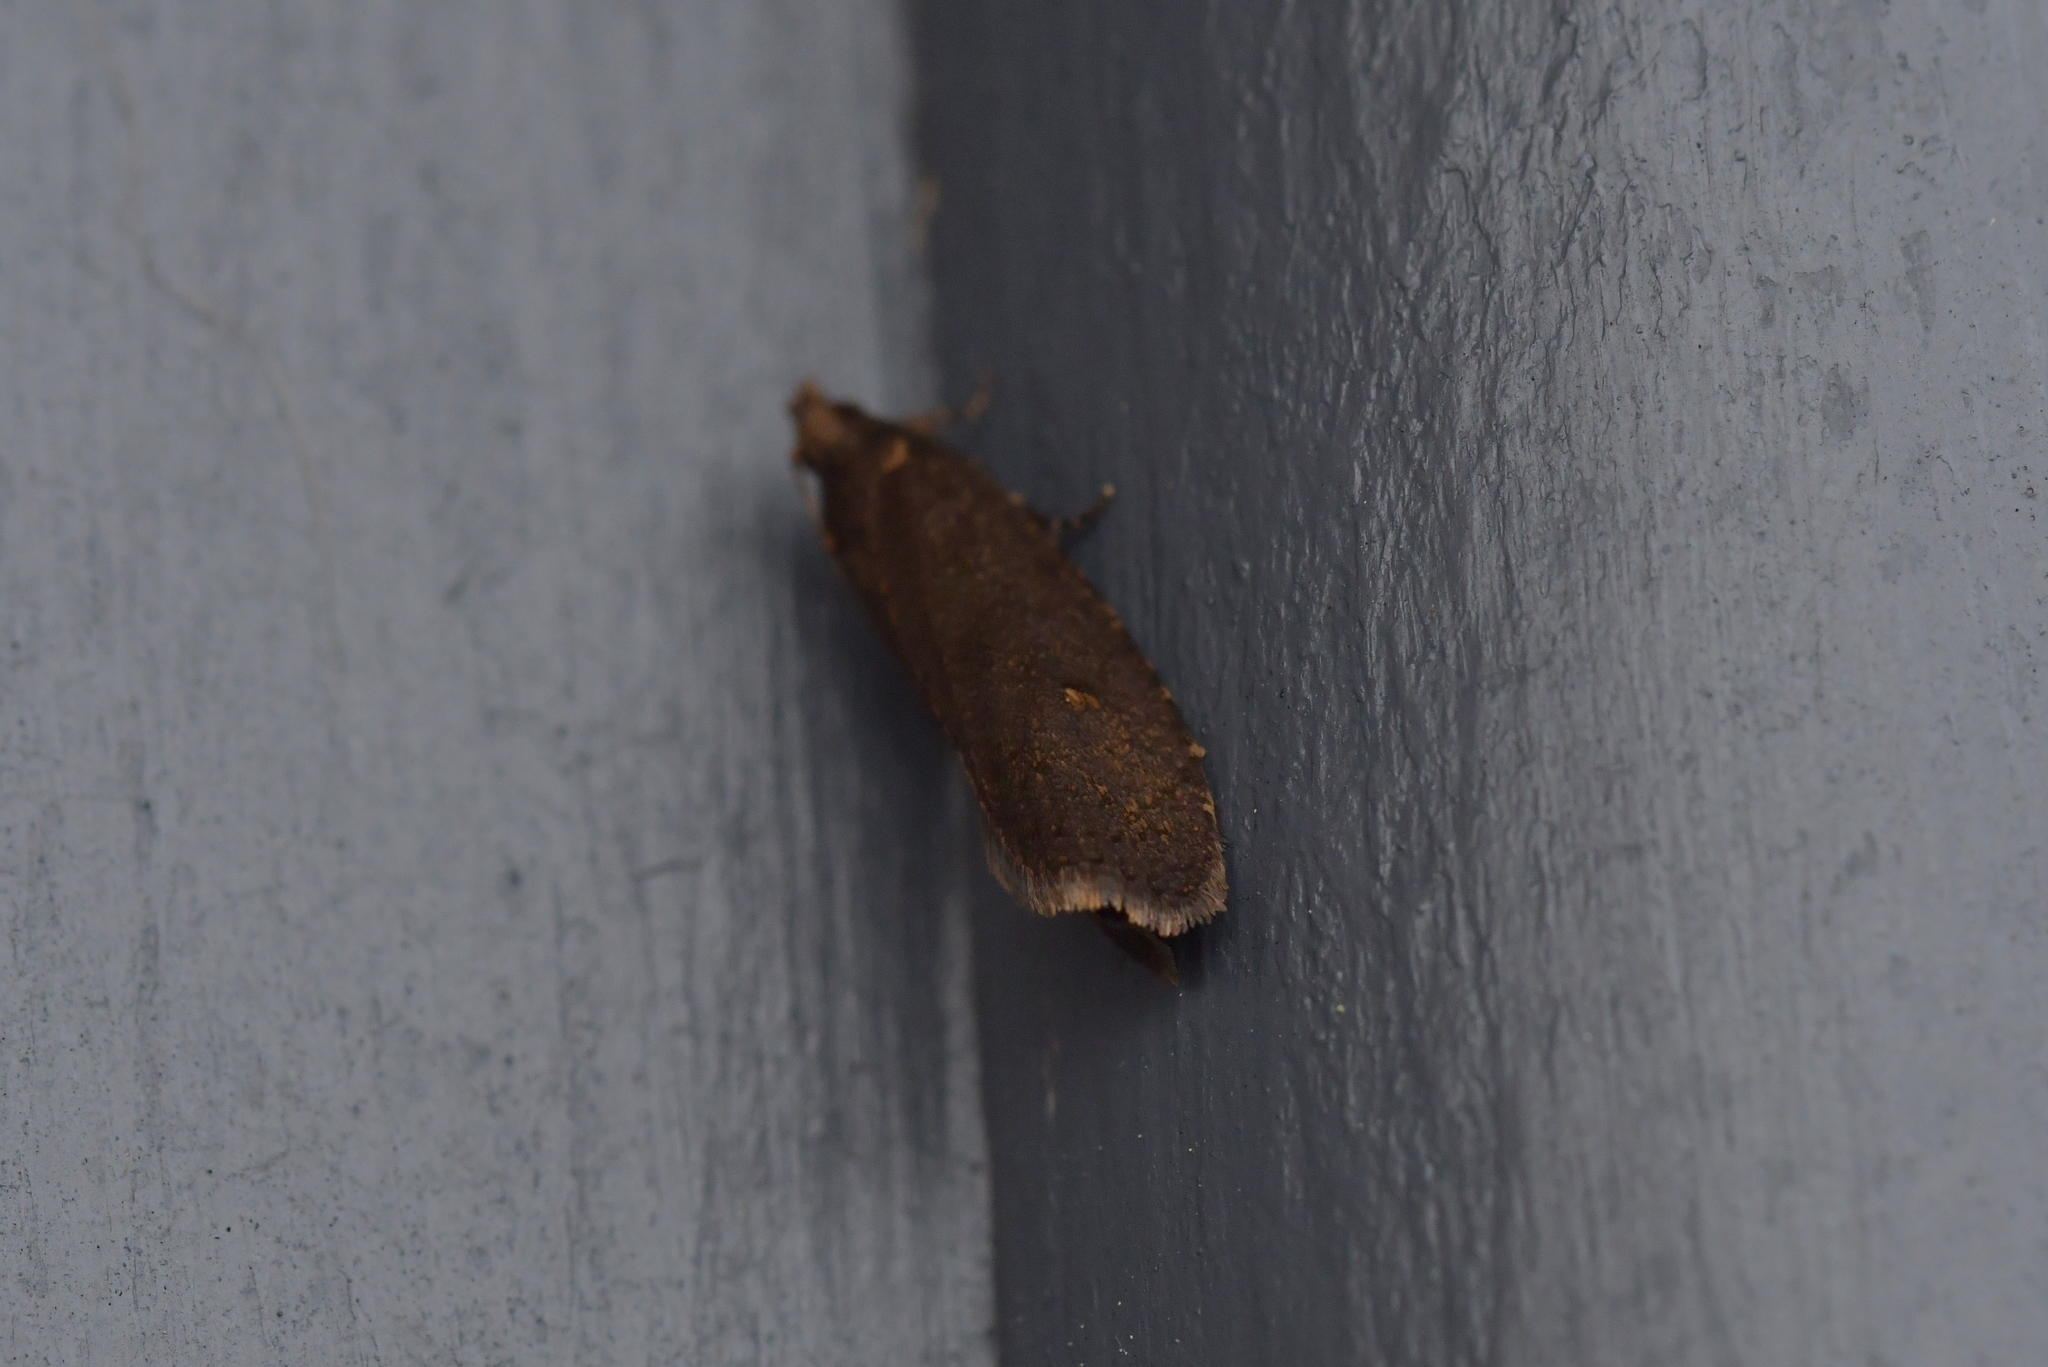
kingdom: Animalia
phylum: Arthropoda
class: Insecta
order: Lepidoptera
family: Tortricidae
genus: Cryptaspasma
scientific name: Cryptaspasma querula
